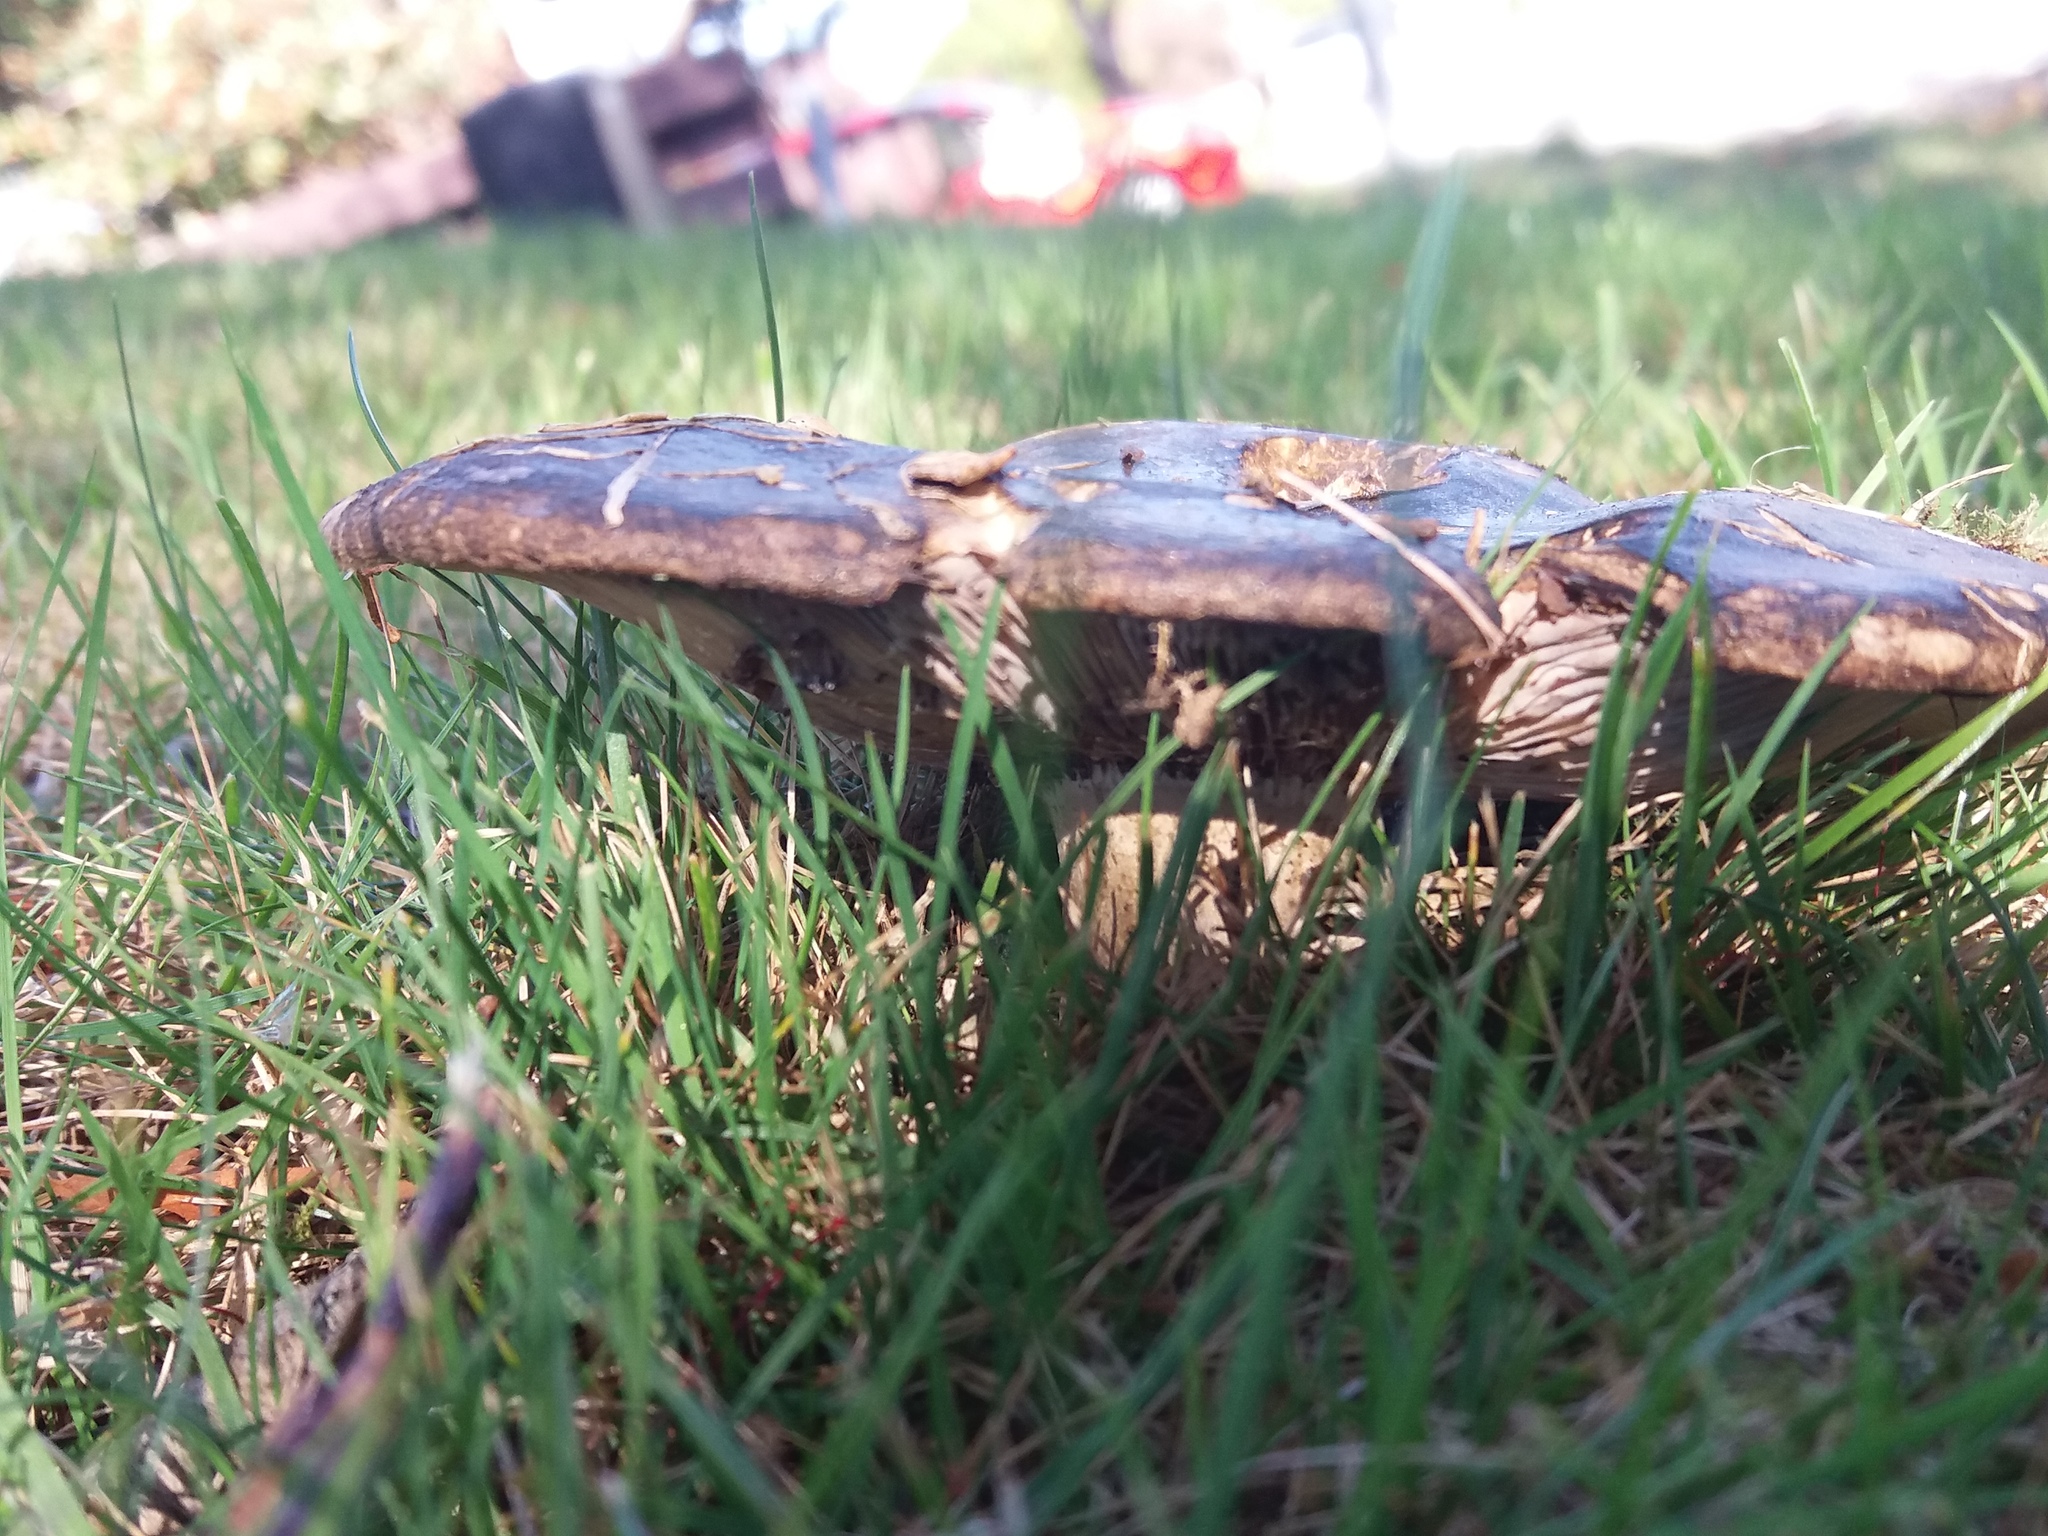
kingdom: Fungi
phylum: Basidiomycota
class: Agaricomycetes
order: Russulales
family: Russulaceae
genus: Lactarius
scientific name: Lactarius turpis
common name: Ugly milk-cap
